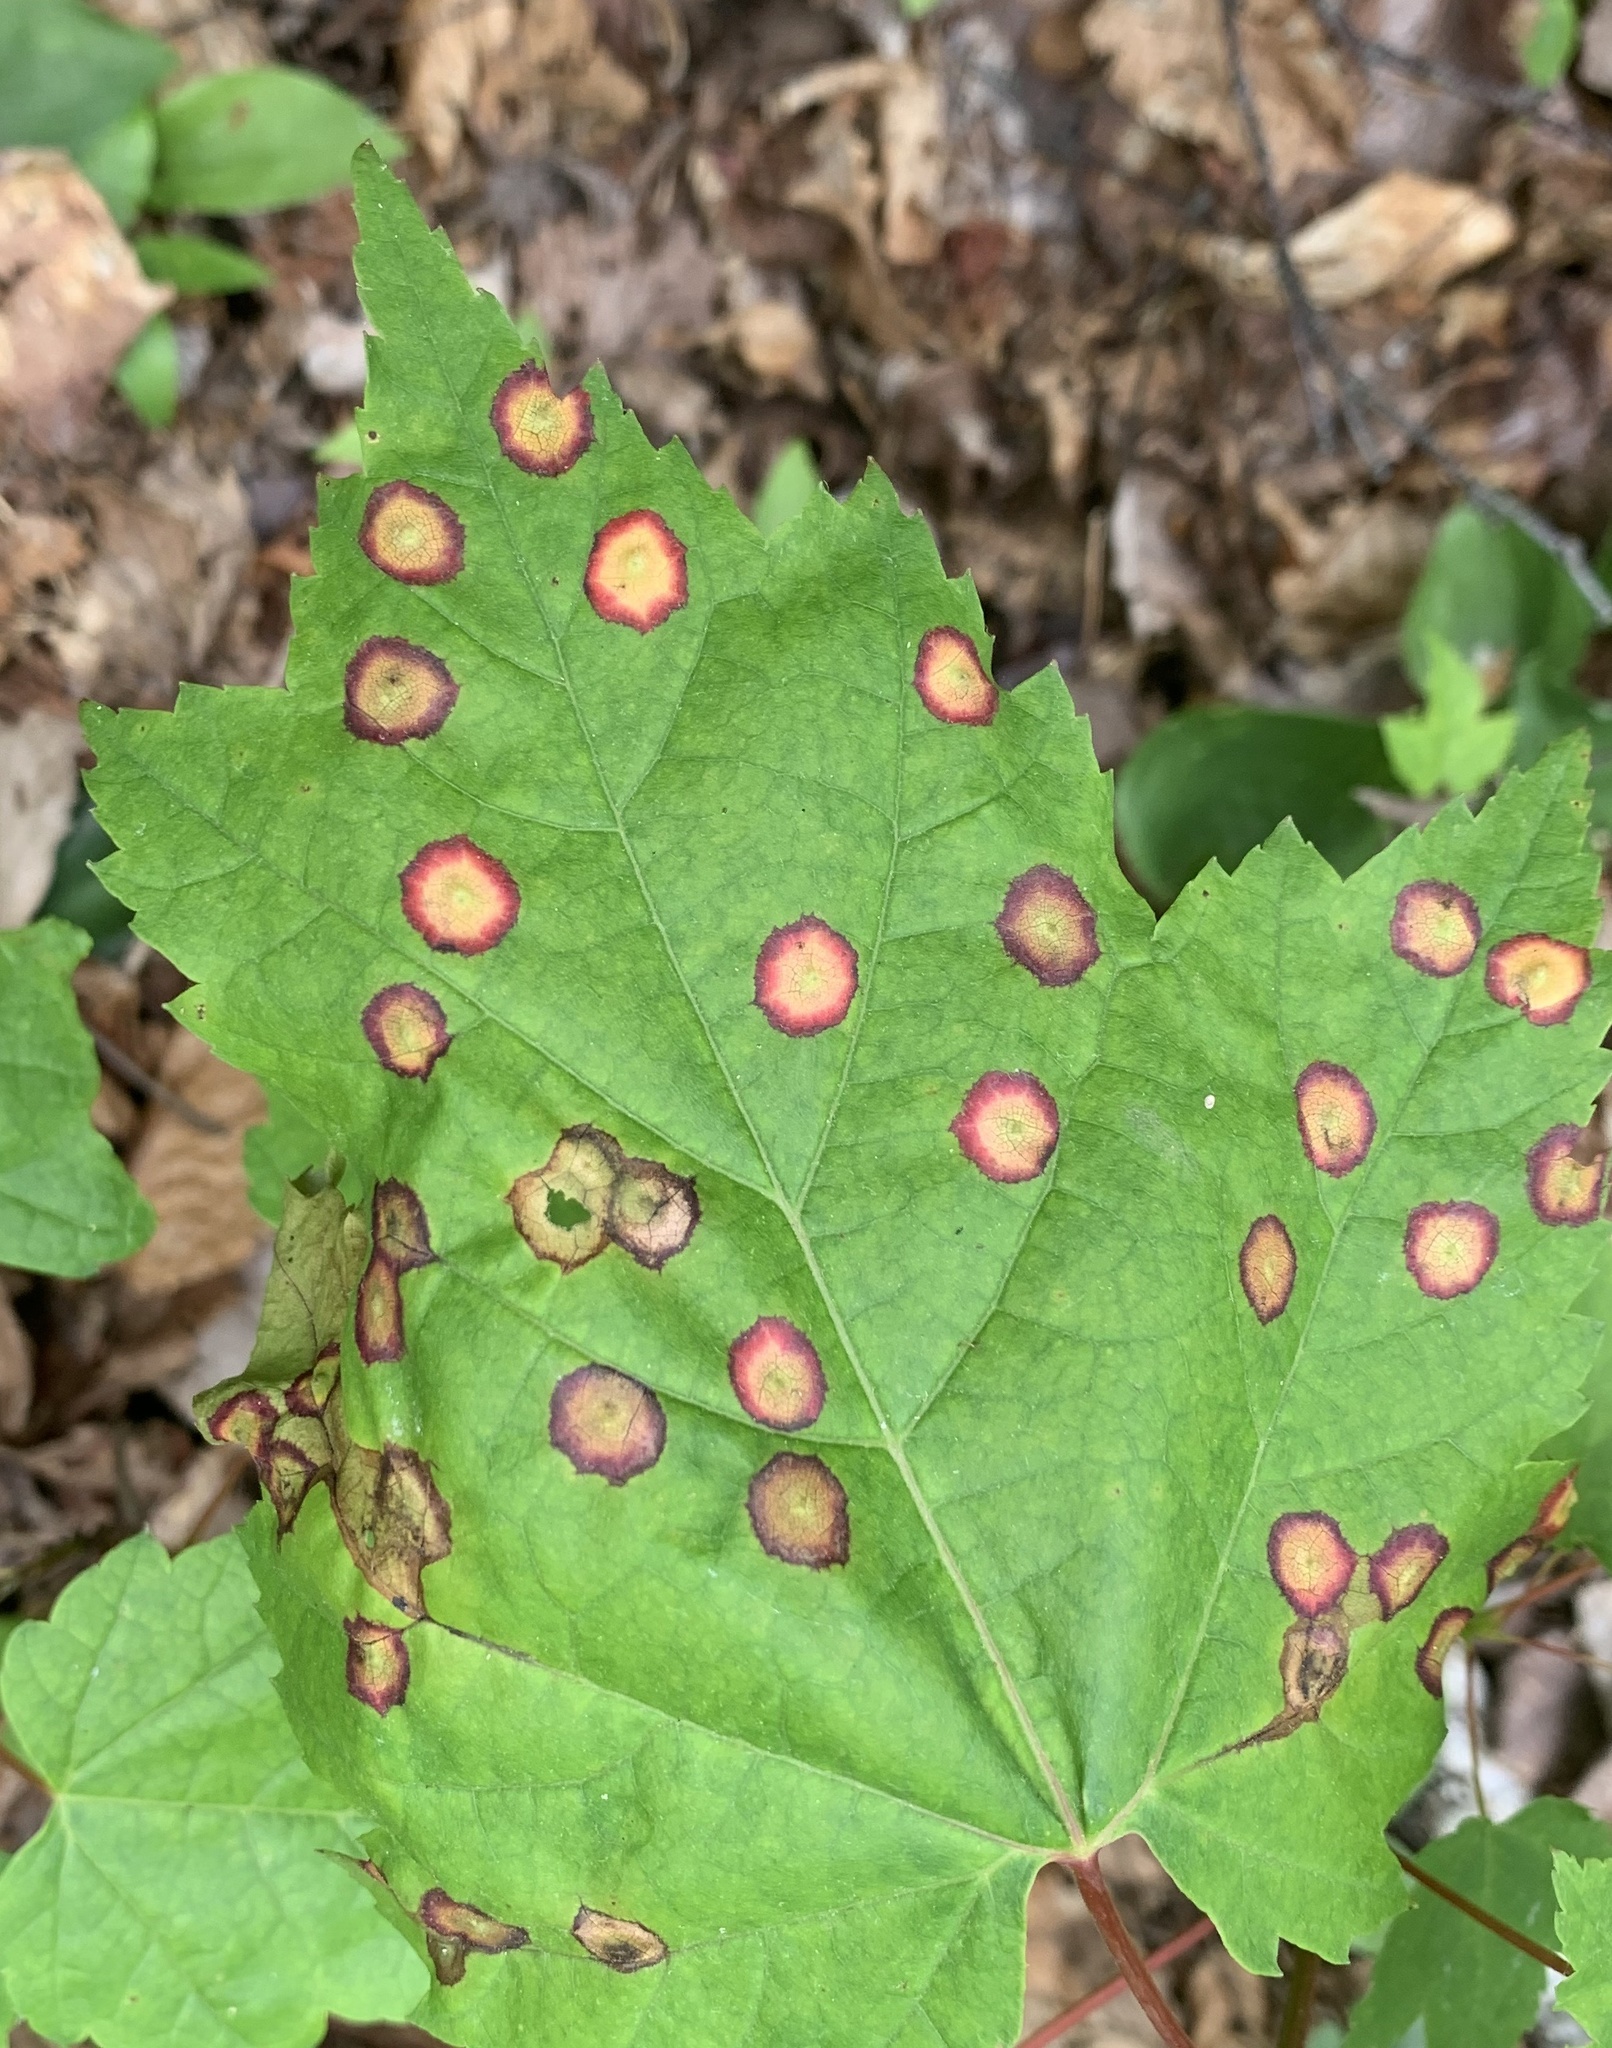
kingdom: Animalia
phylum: Arthropoda
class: Insecta
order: Diptera
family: Cecidomyiidae
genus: Acericecis
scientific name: Acericecis ocellaris
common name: Ocellate gall midge
